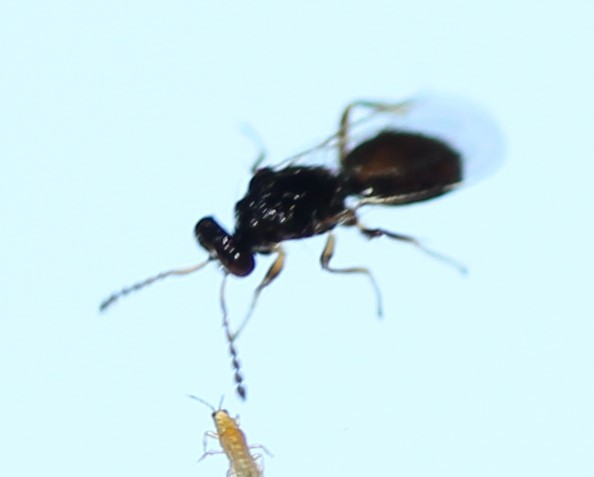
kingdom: Animalia
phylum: Arthropoda
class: Insecta
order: Hymenoptera
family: Eulophidae
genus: Euplectrus
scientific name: Euplectrus
